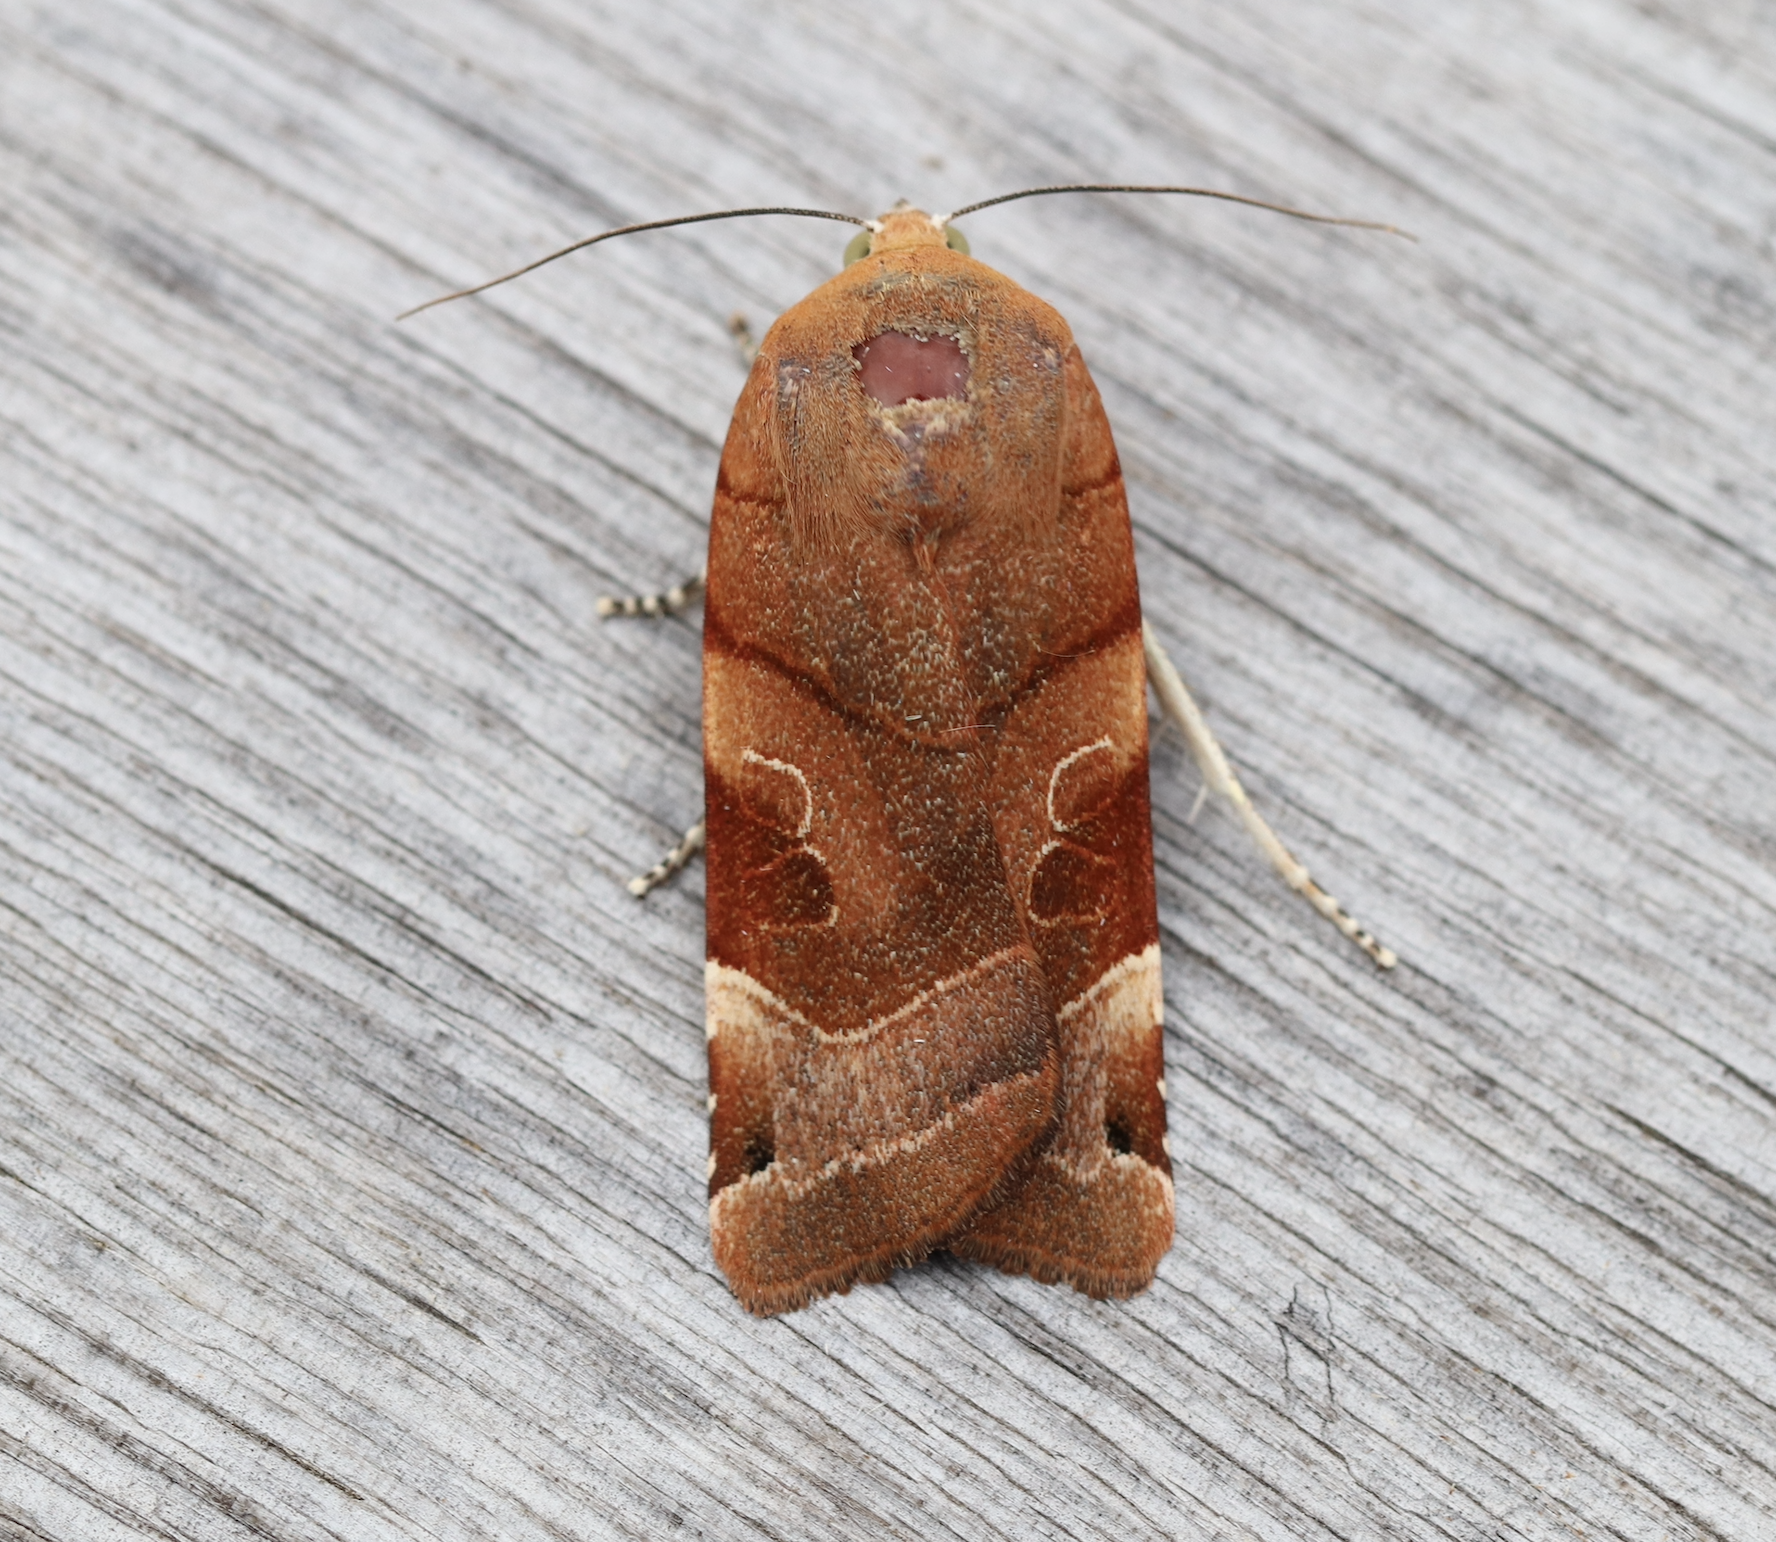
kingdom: Animalia
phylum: Arthropoda
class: Insecta
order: Lepidoptera
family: Noctuidae
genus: Noctua
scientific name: Noctua fimbriata
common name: Broad-bordered yellow underwing
